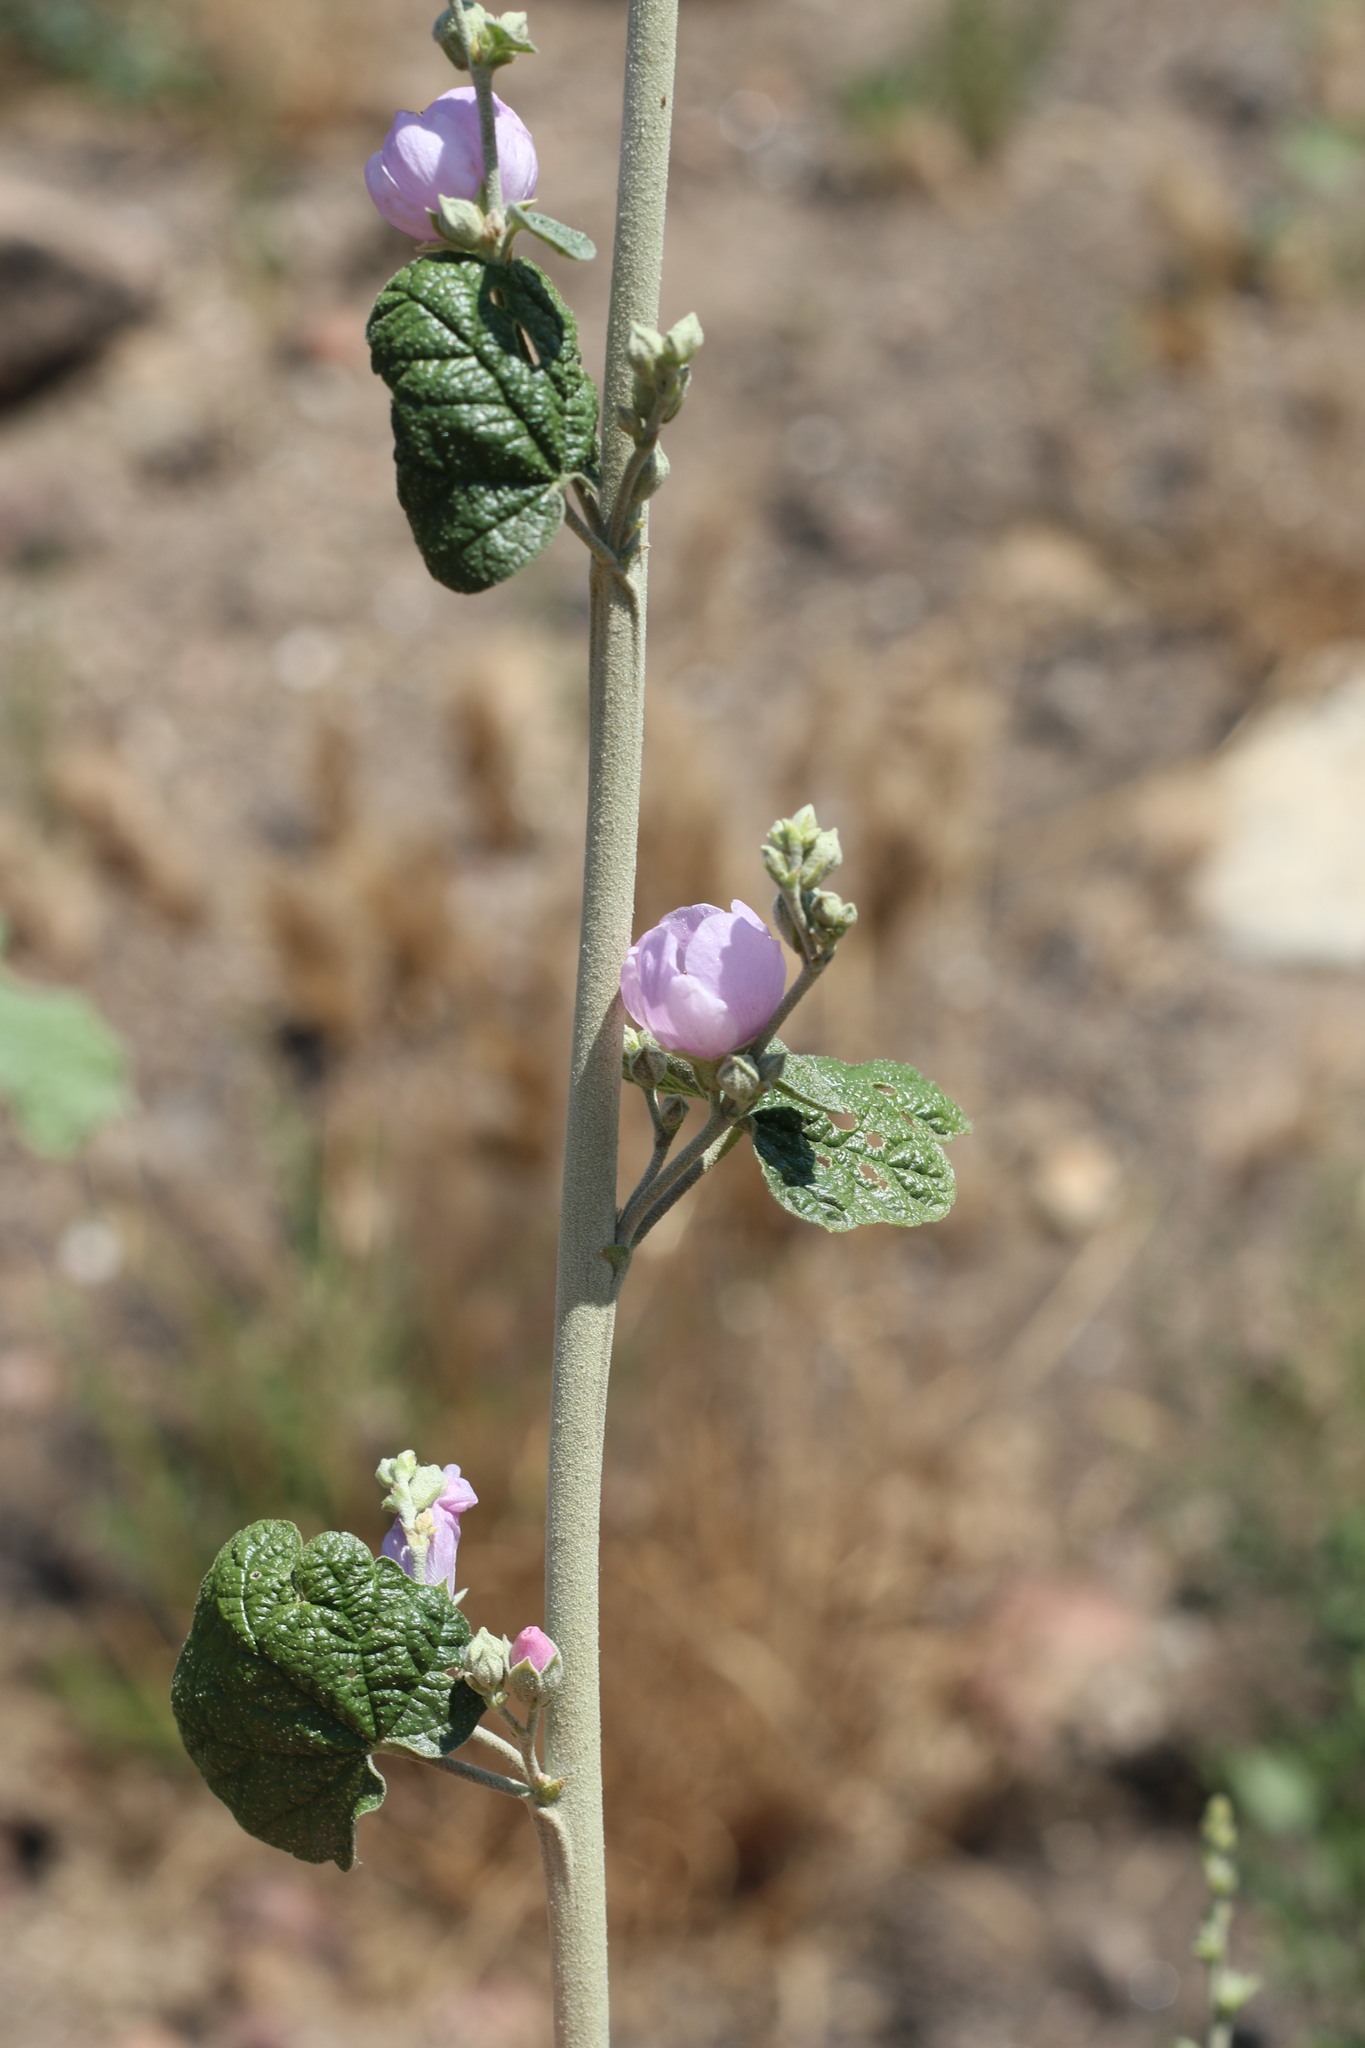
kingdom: Plantae
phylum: Tracheophyta
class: Magnoliopsida
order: Malvales
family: Malvaceae
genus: Malacothamnus
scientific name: Malacothamnus fasciculatus
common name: Sant cruz island bush-mallow
